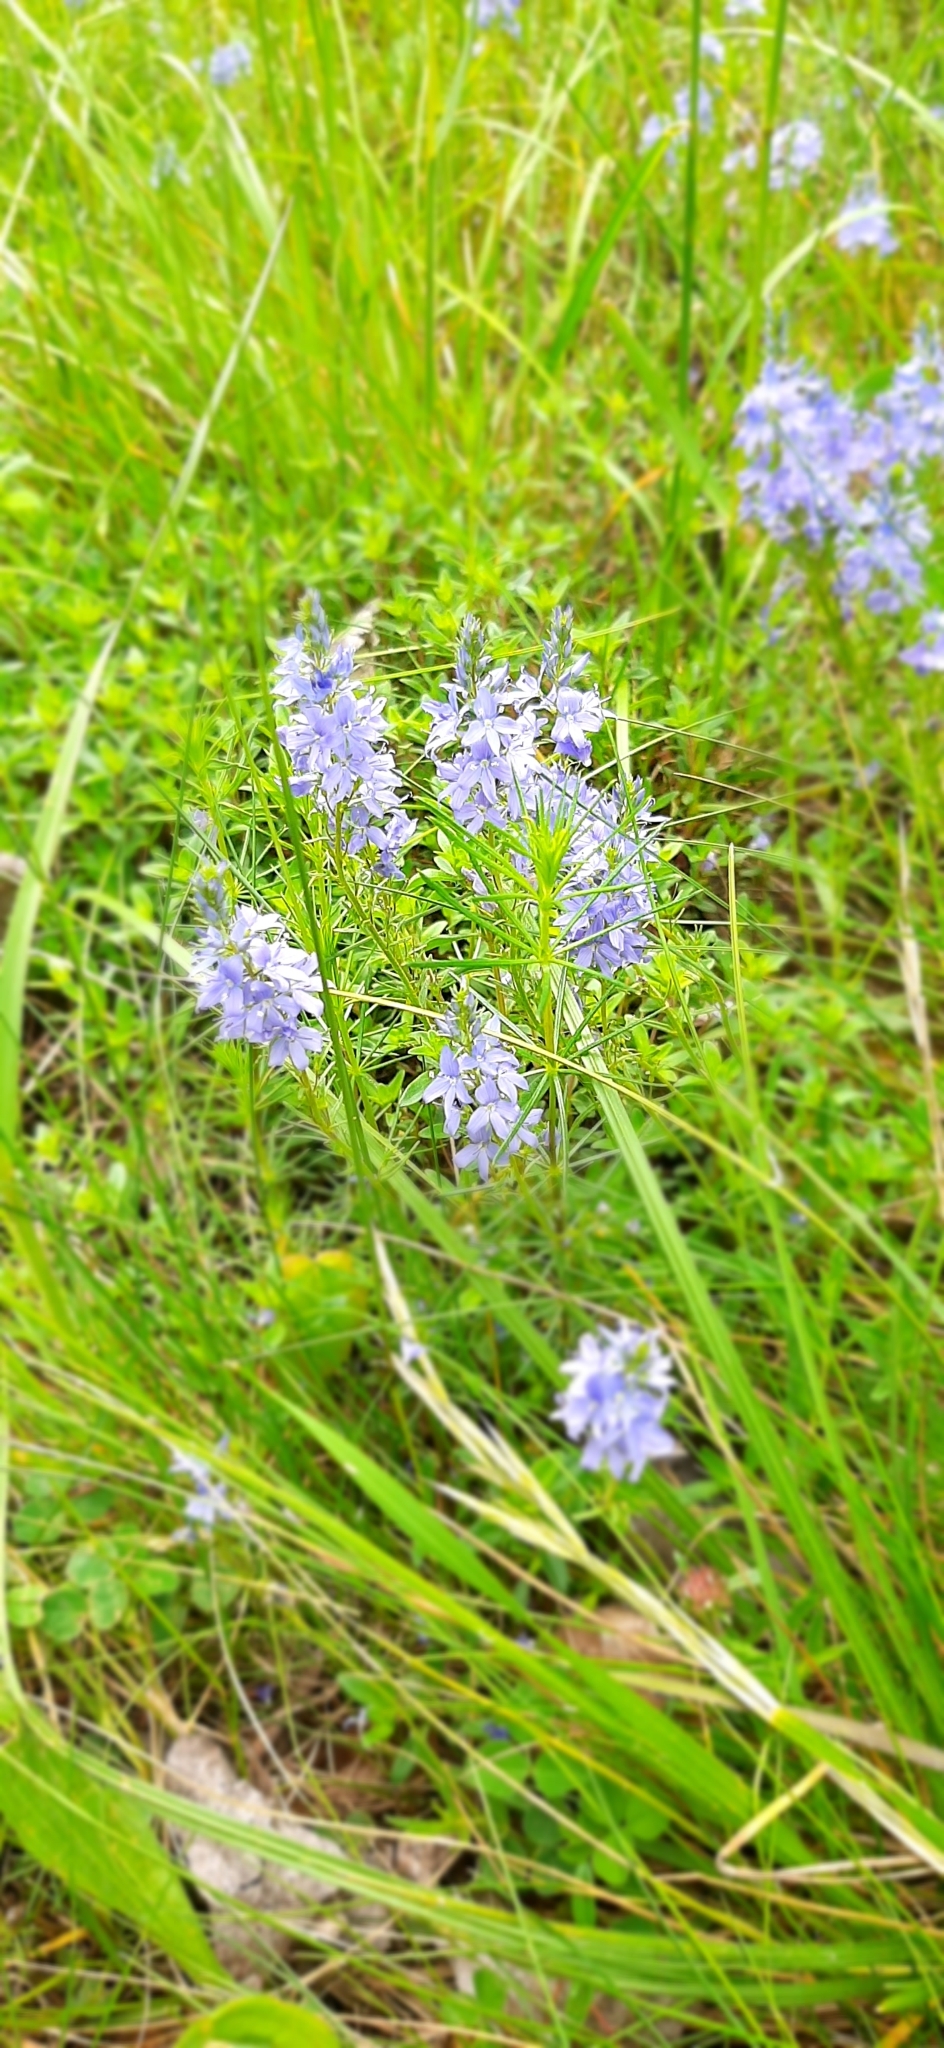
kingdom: Plantae
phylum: Tracheophyta
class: Magnoliopsida
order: Lamiales
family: Plantaginaceae
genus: Veronica
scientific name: Veronica prostrata
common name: Prostrate speedwell
